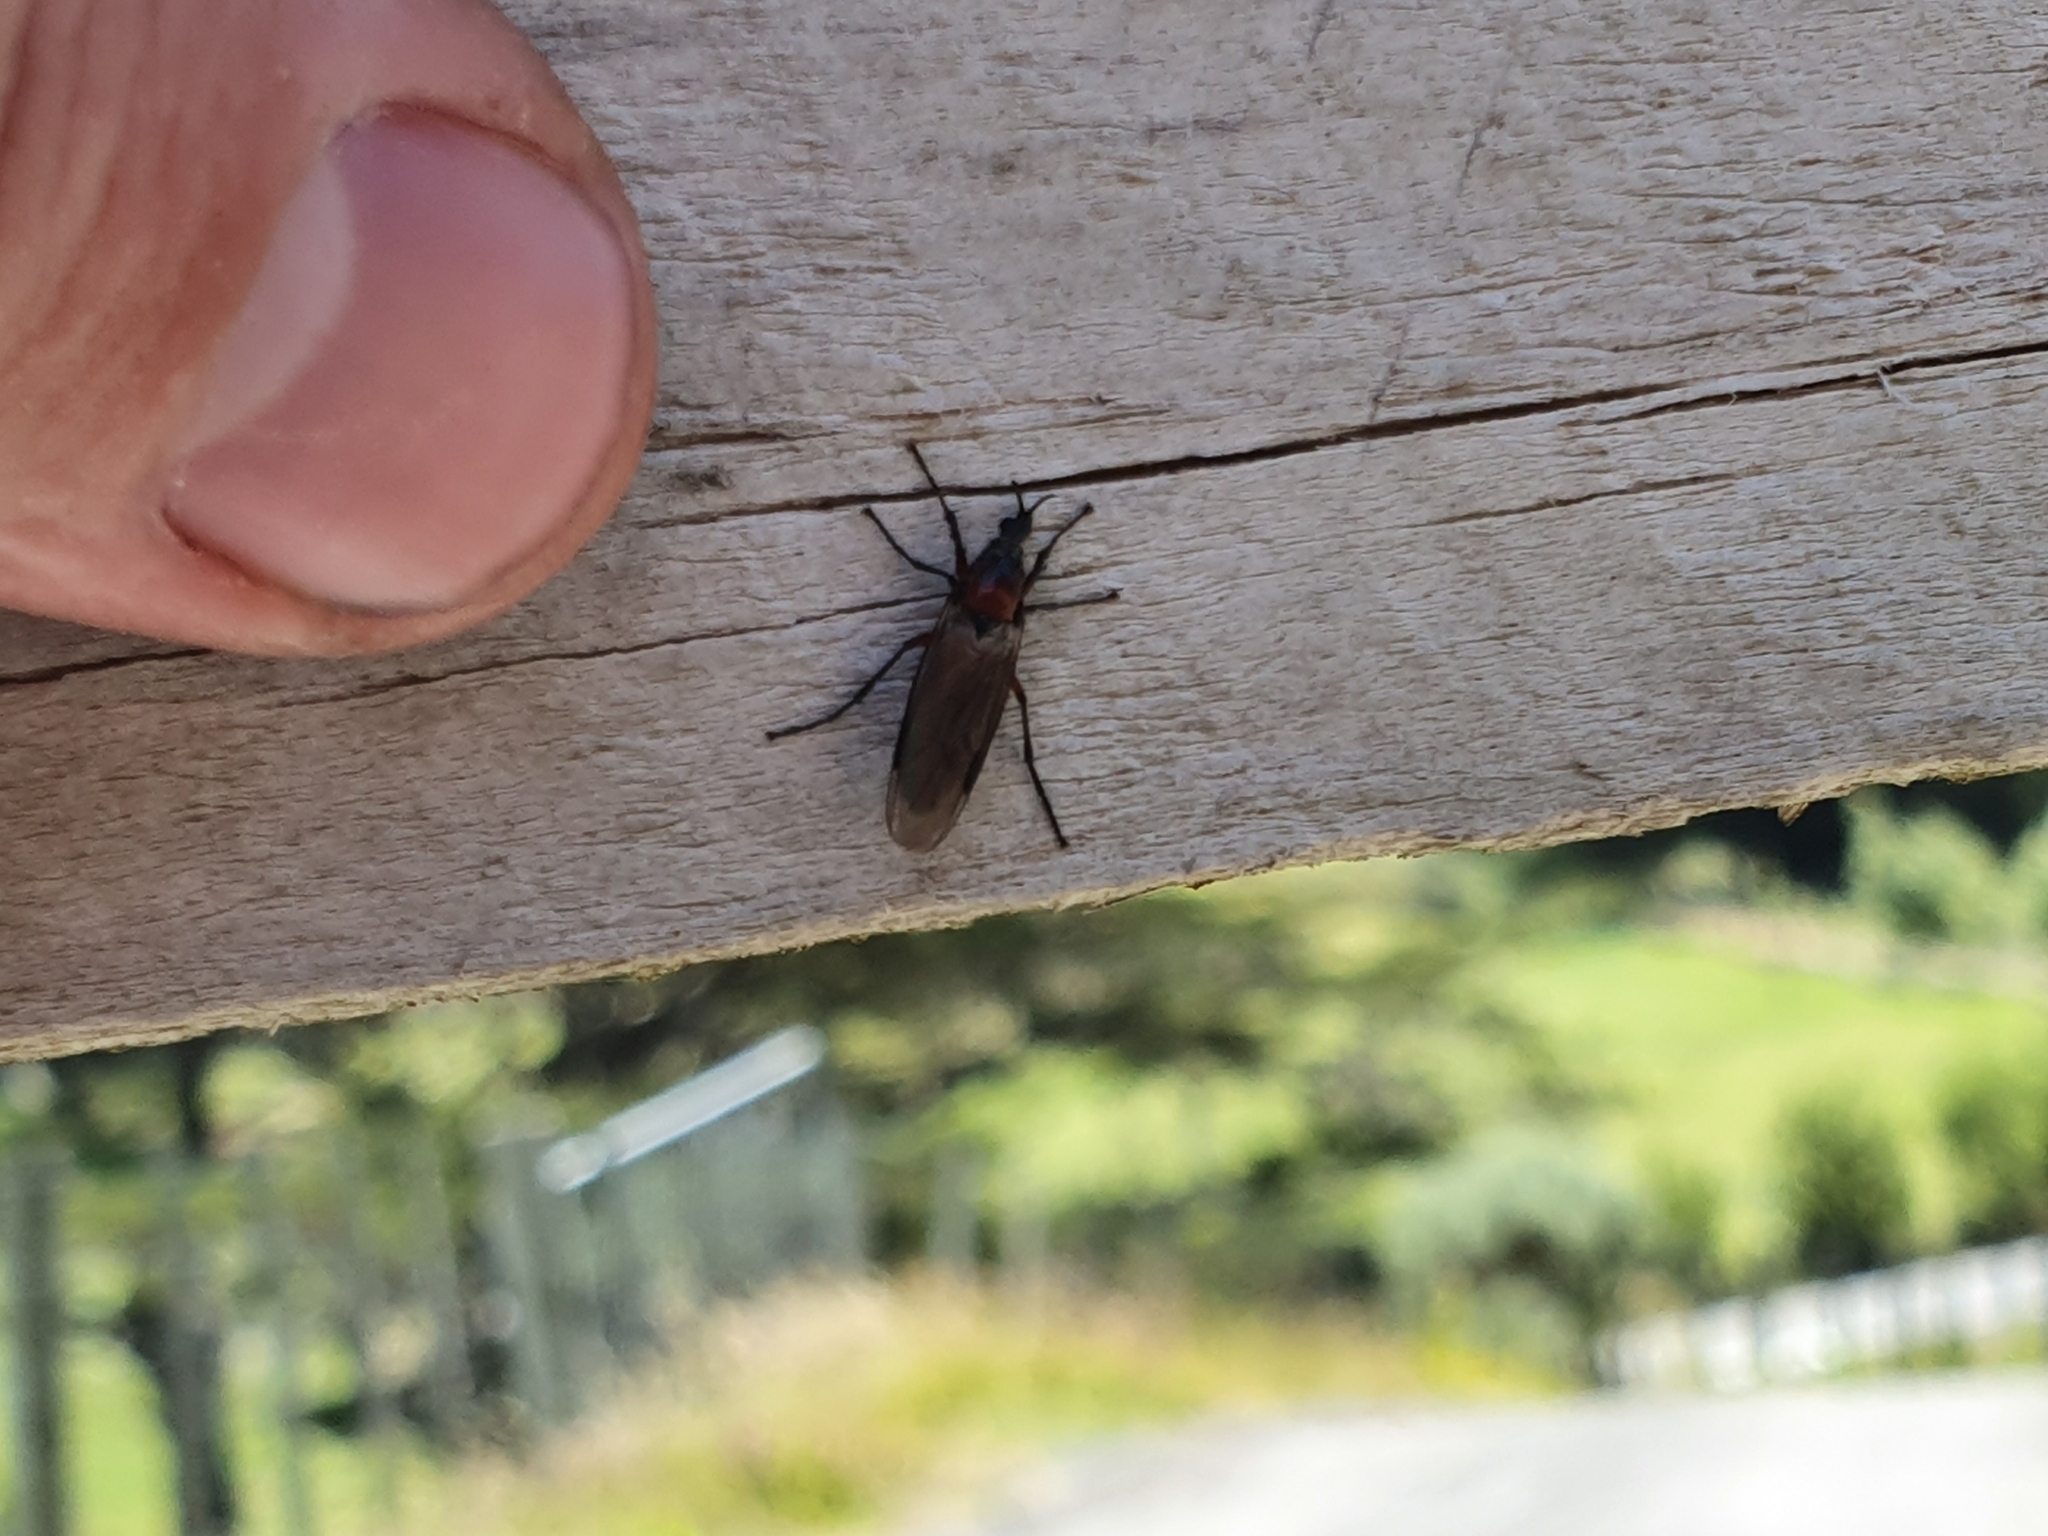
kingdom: Animalia
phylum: Arthropoda
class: Insecta
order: Diptera
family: Bibionidae
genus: Dilophus
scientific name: Dilophus nigrostigma
